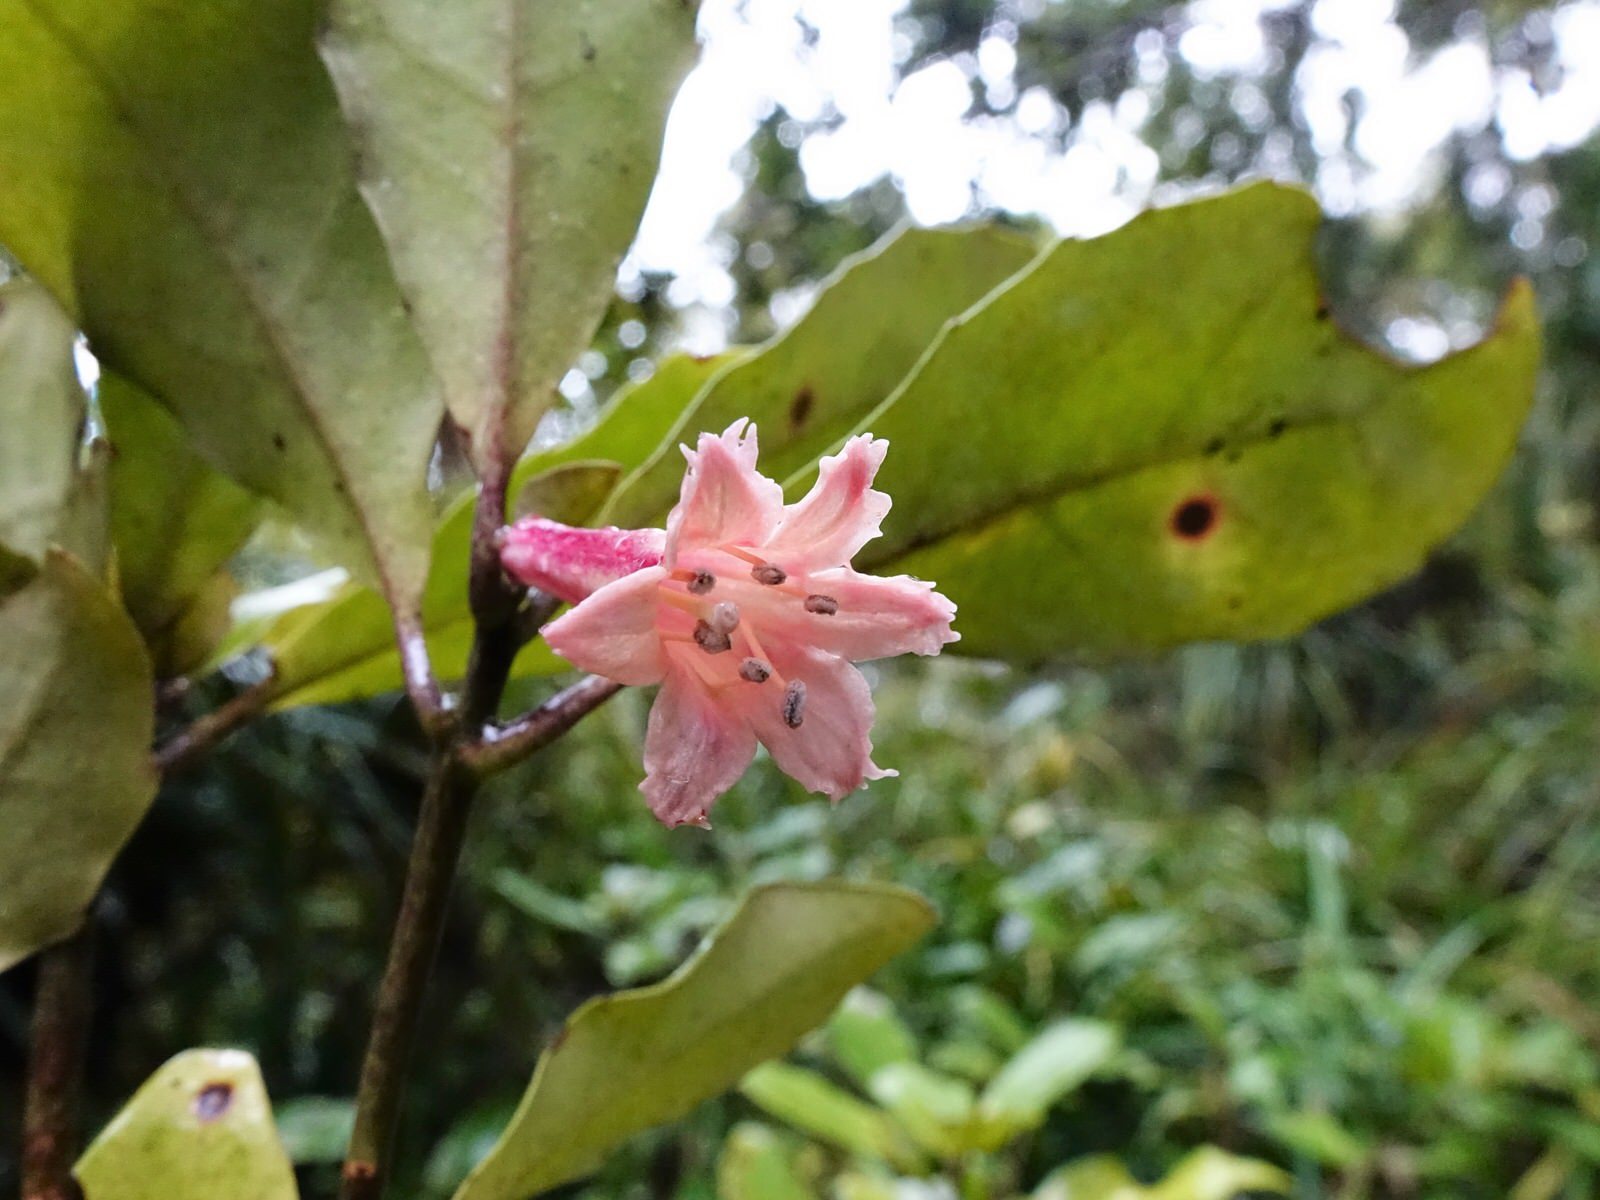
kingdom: Plantae
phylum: Tracheophyta
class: Magnoliopsida
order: Asterales
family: Alseuosmiaceae
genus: Alseuosmia
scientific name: Alseuosmia macrophylla
